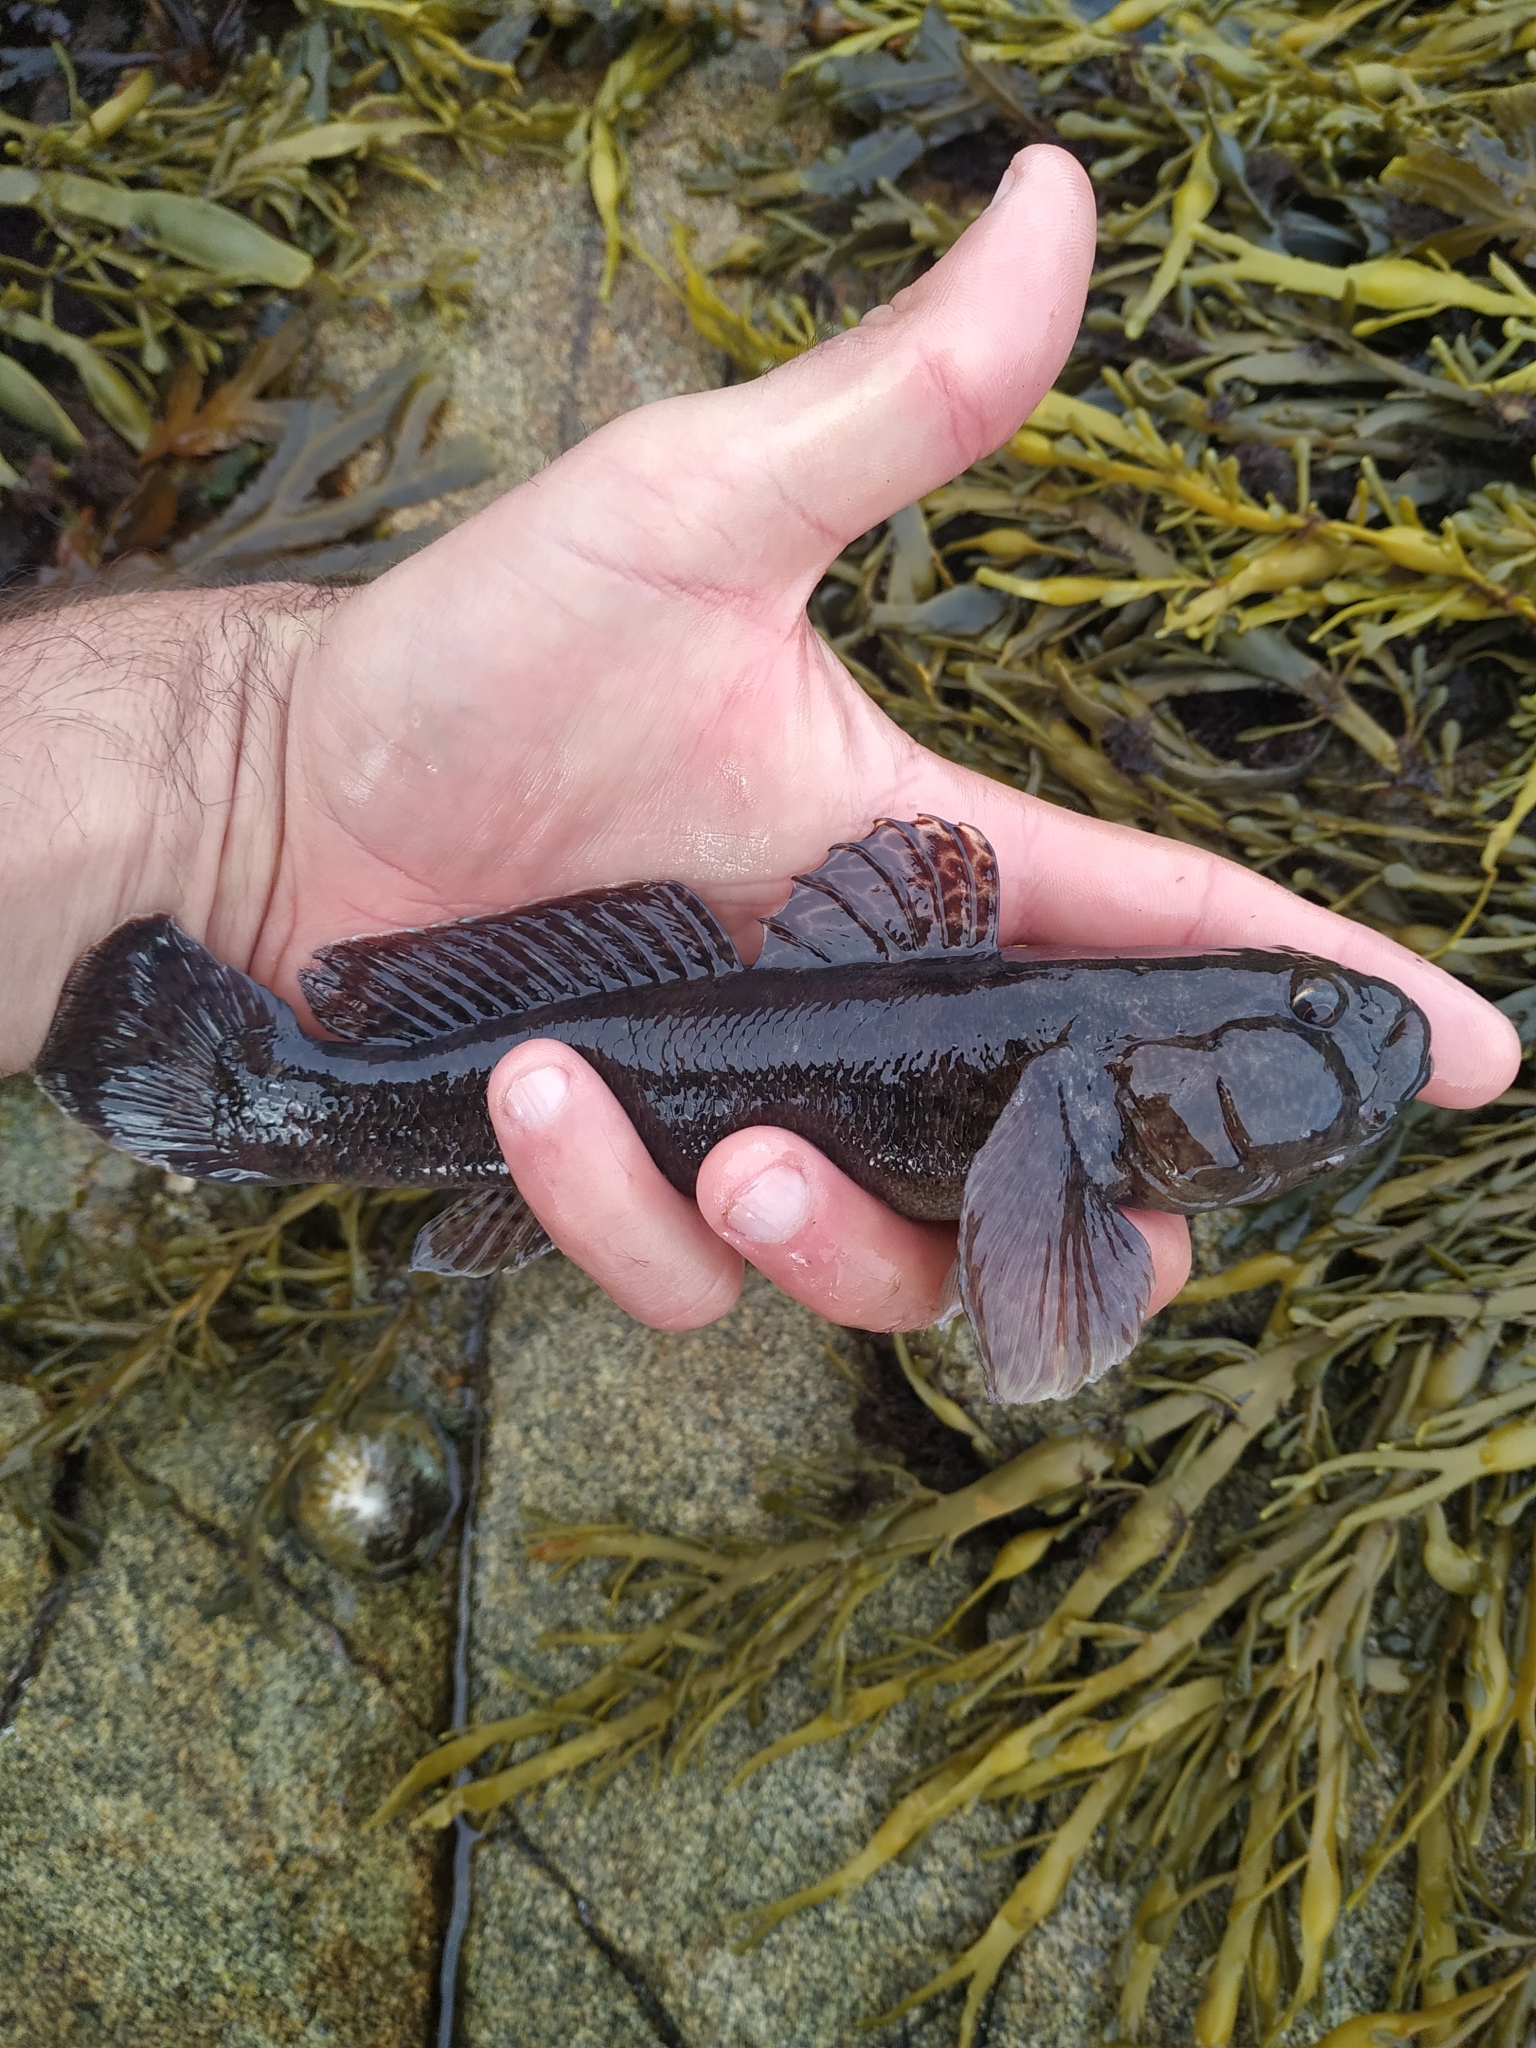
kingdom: Animalia
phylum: Chordata
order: Perciformes
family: Gobiidae
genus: Gobius
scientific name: Gobius cobitis
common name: Giant goby
